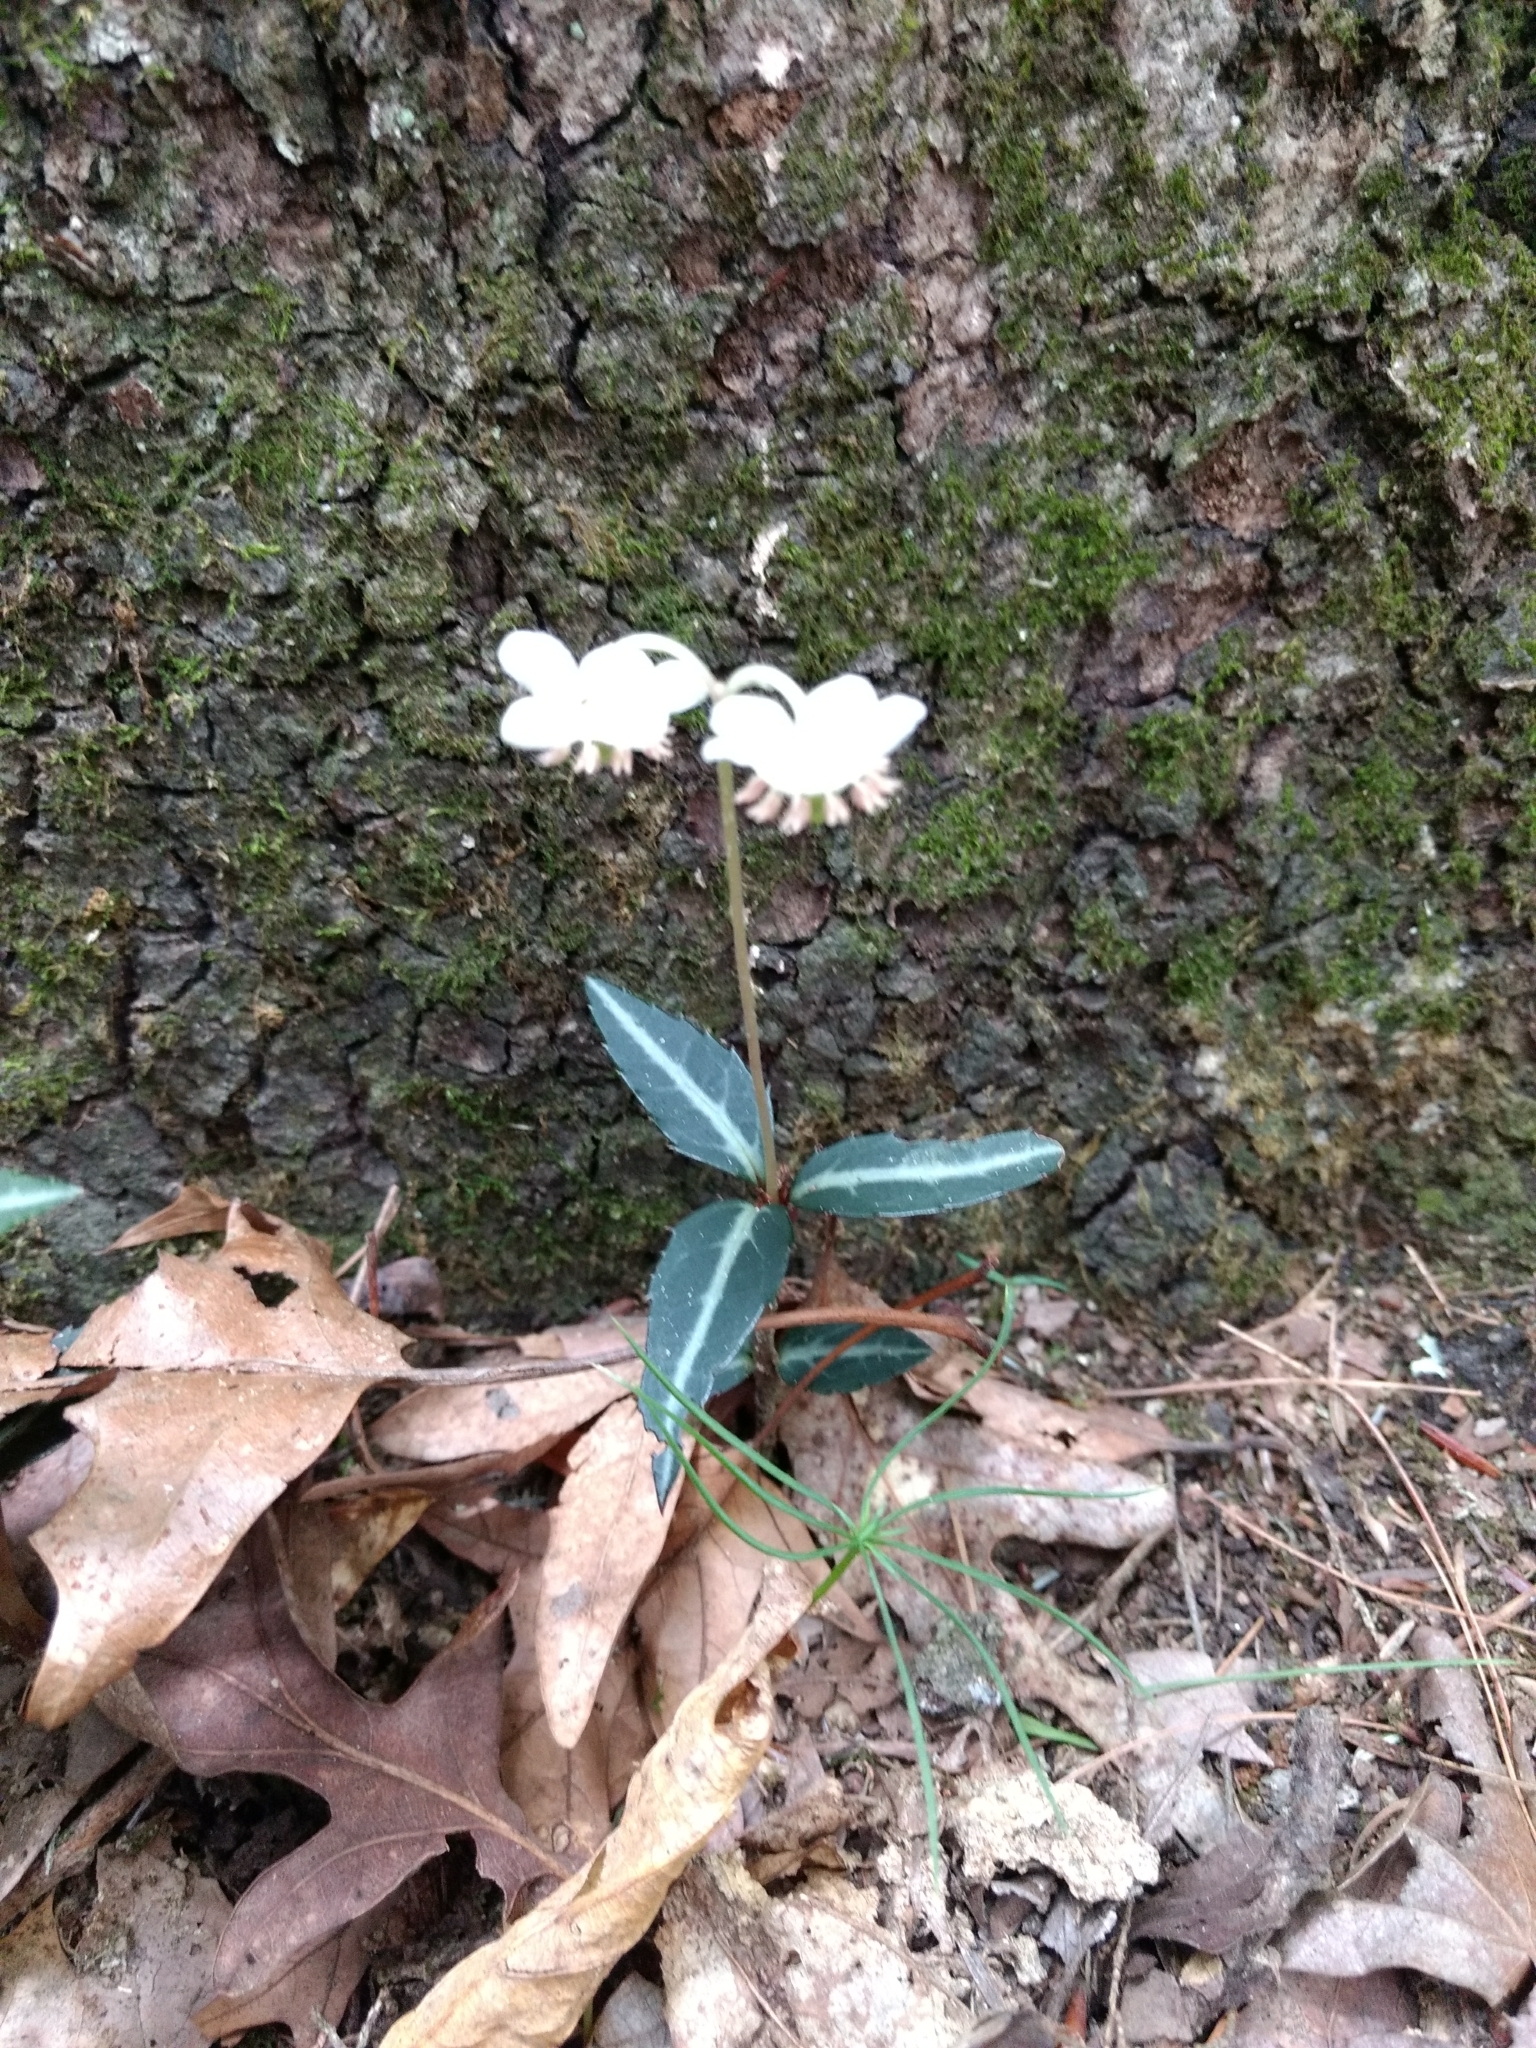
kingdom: Plantae
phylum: Tracheophyta
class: Magnoliopsida
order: Ericales
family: Ericaceae
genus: Chimaphila
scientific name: Chimaphila maculata
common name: Spotted pipsissewa
